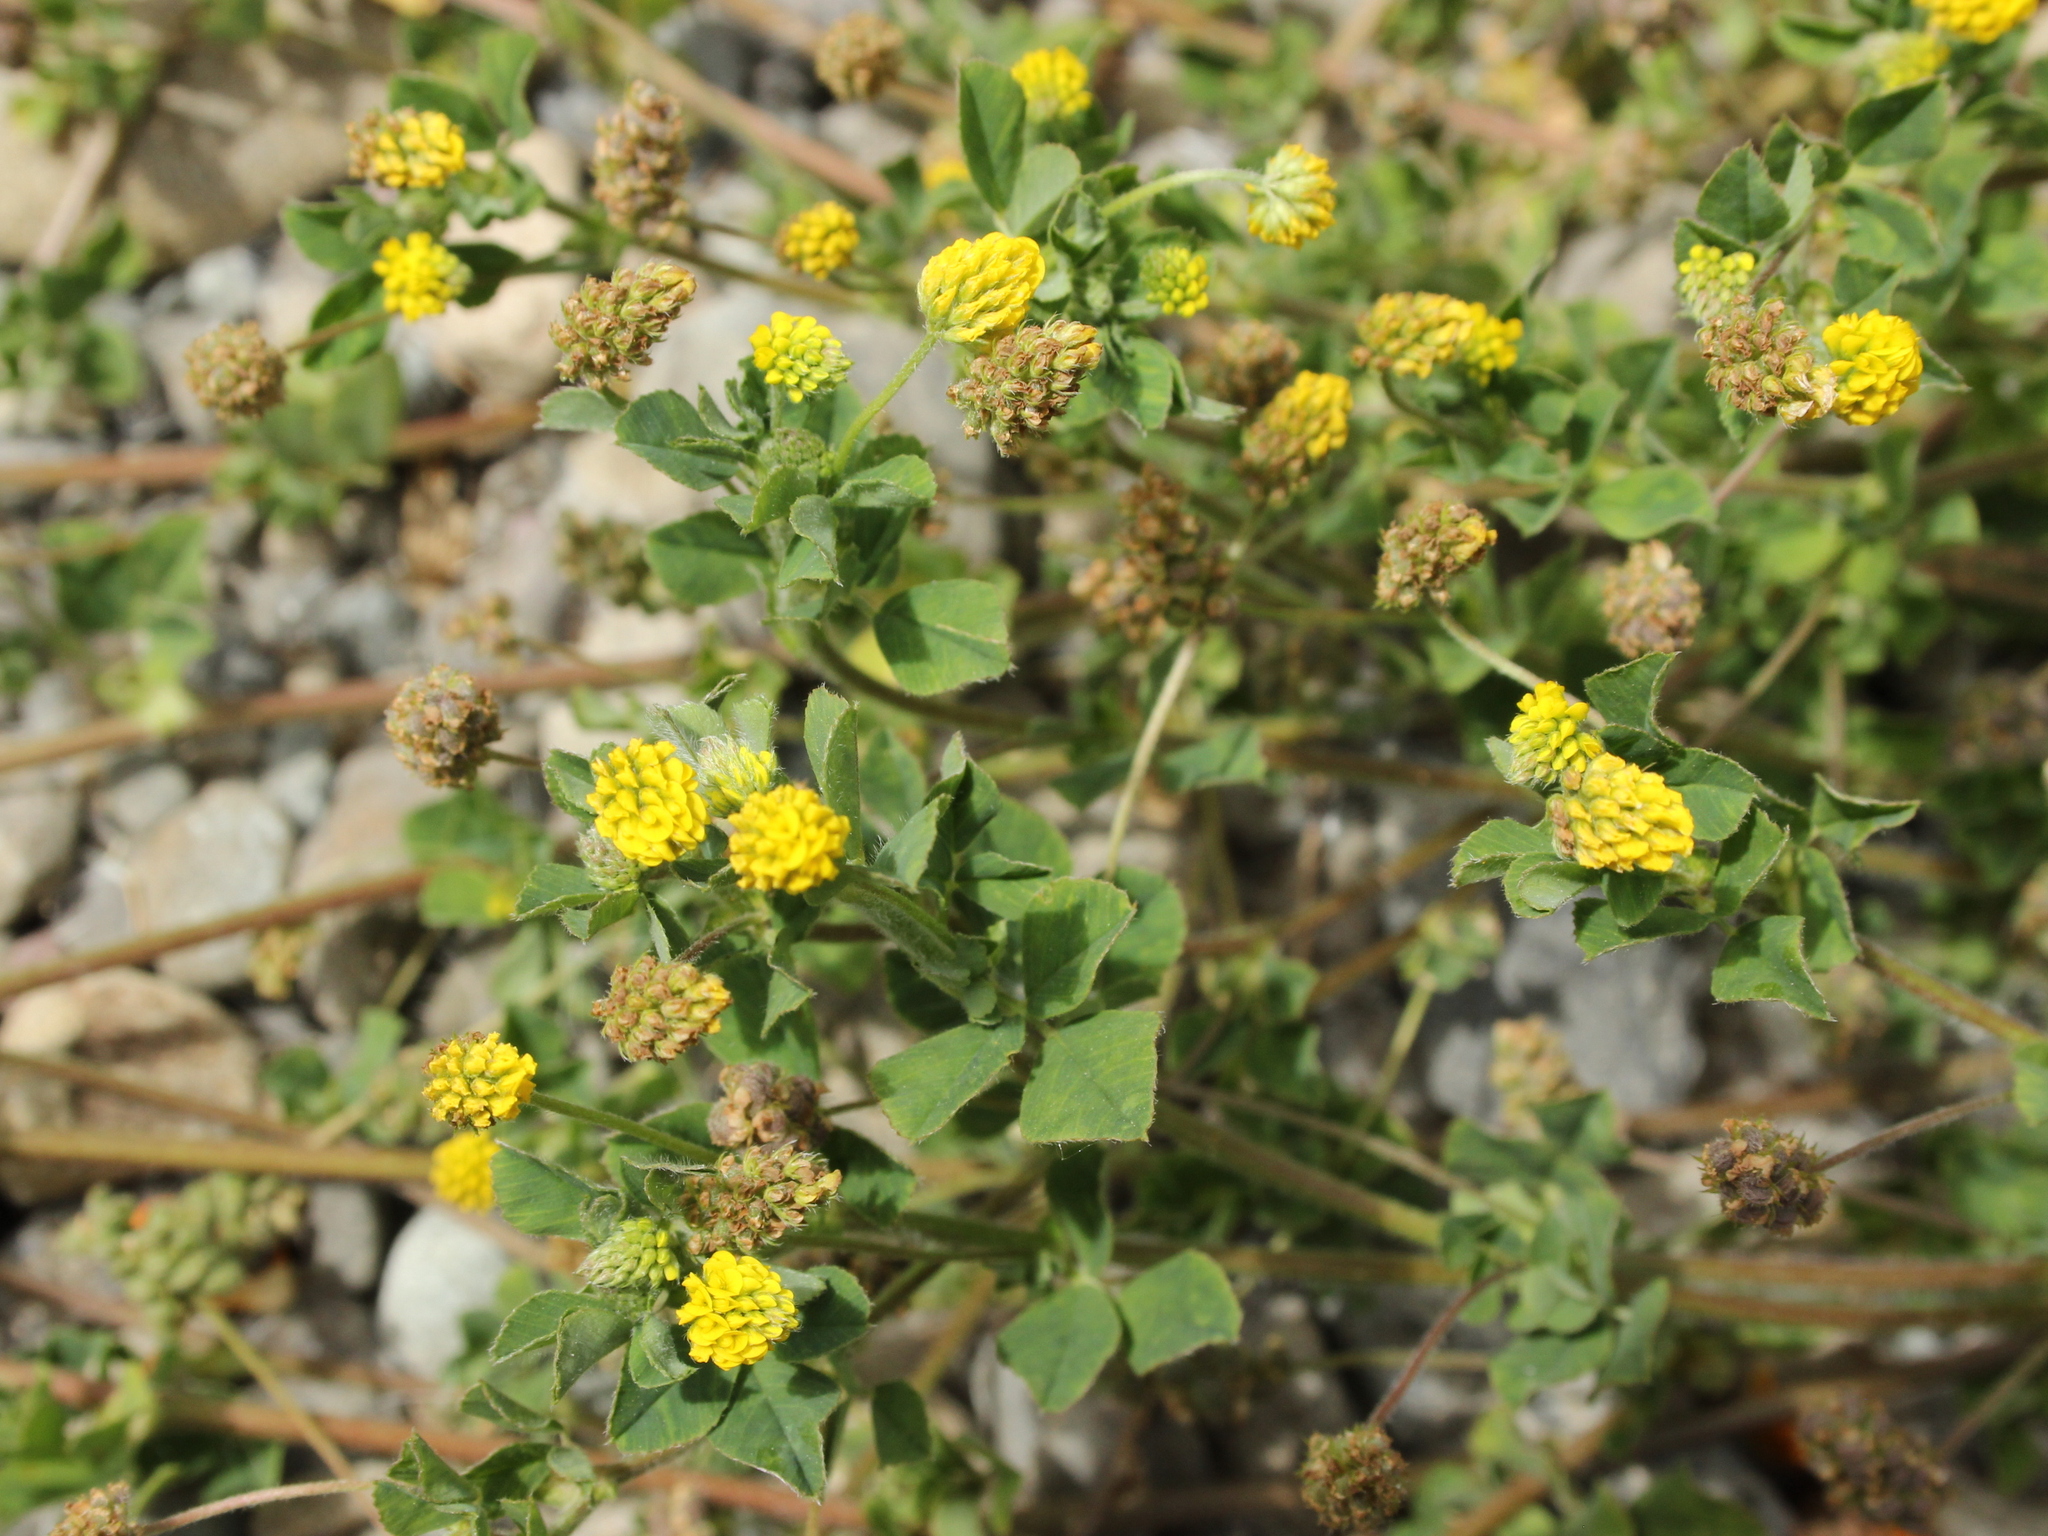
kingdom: Plantae
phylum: Tracheophyta
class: Magnoliopsida
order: Fabales
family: Fabaceae
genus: Medicago
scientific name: Medicago lupulina
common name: Black medick
